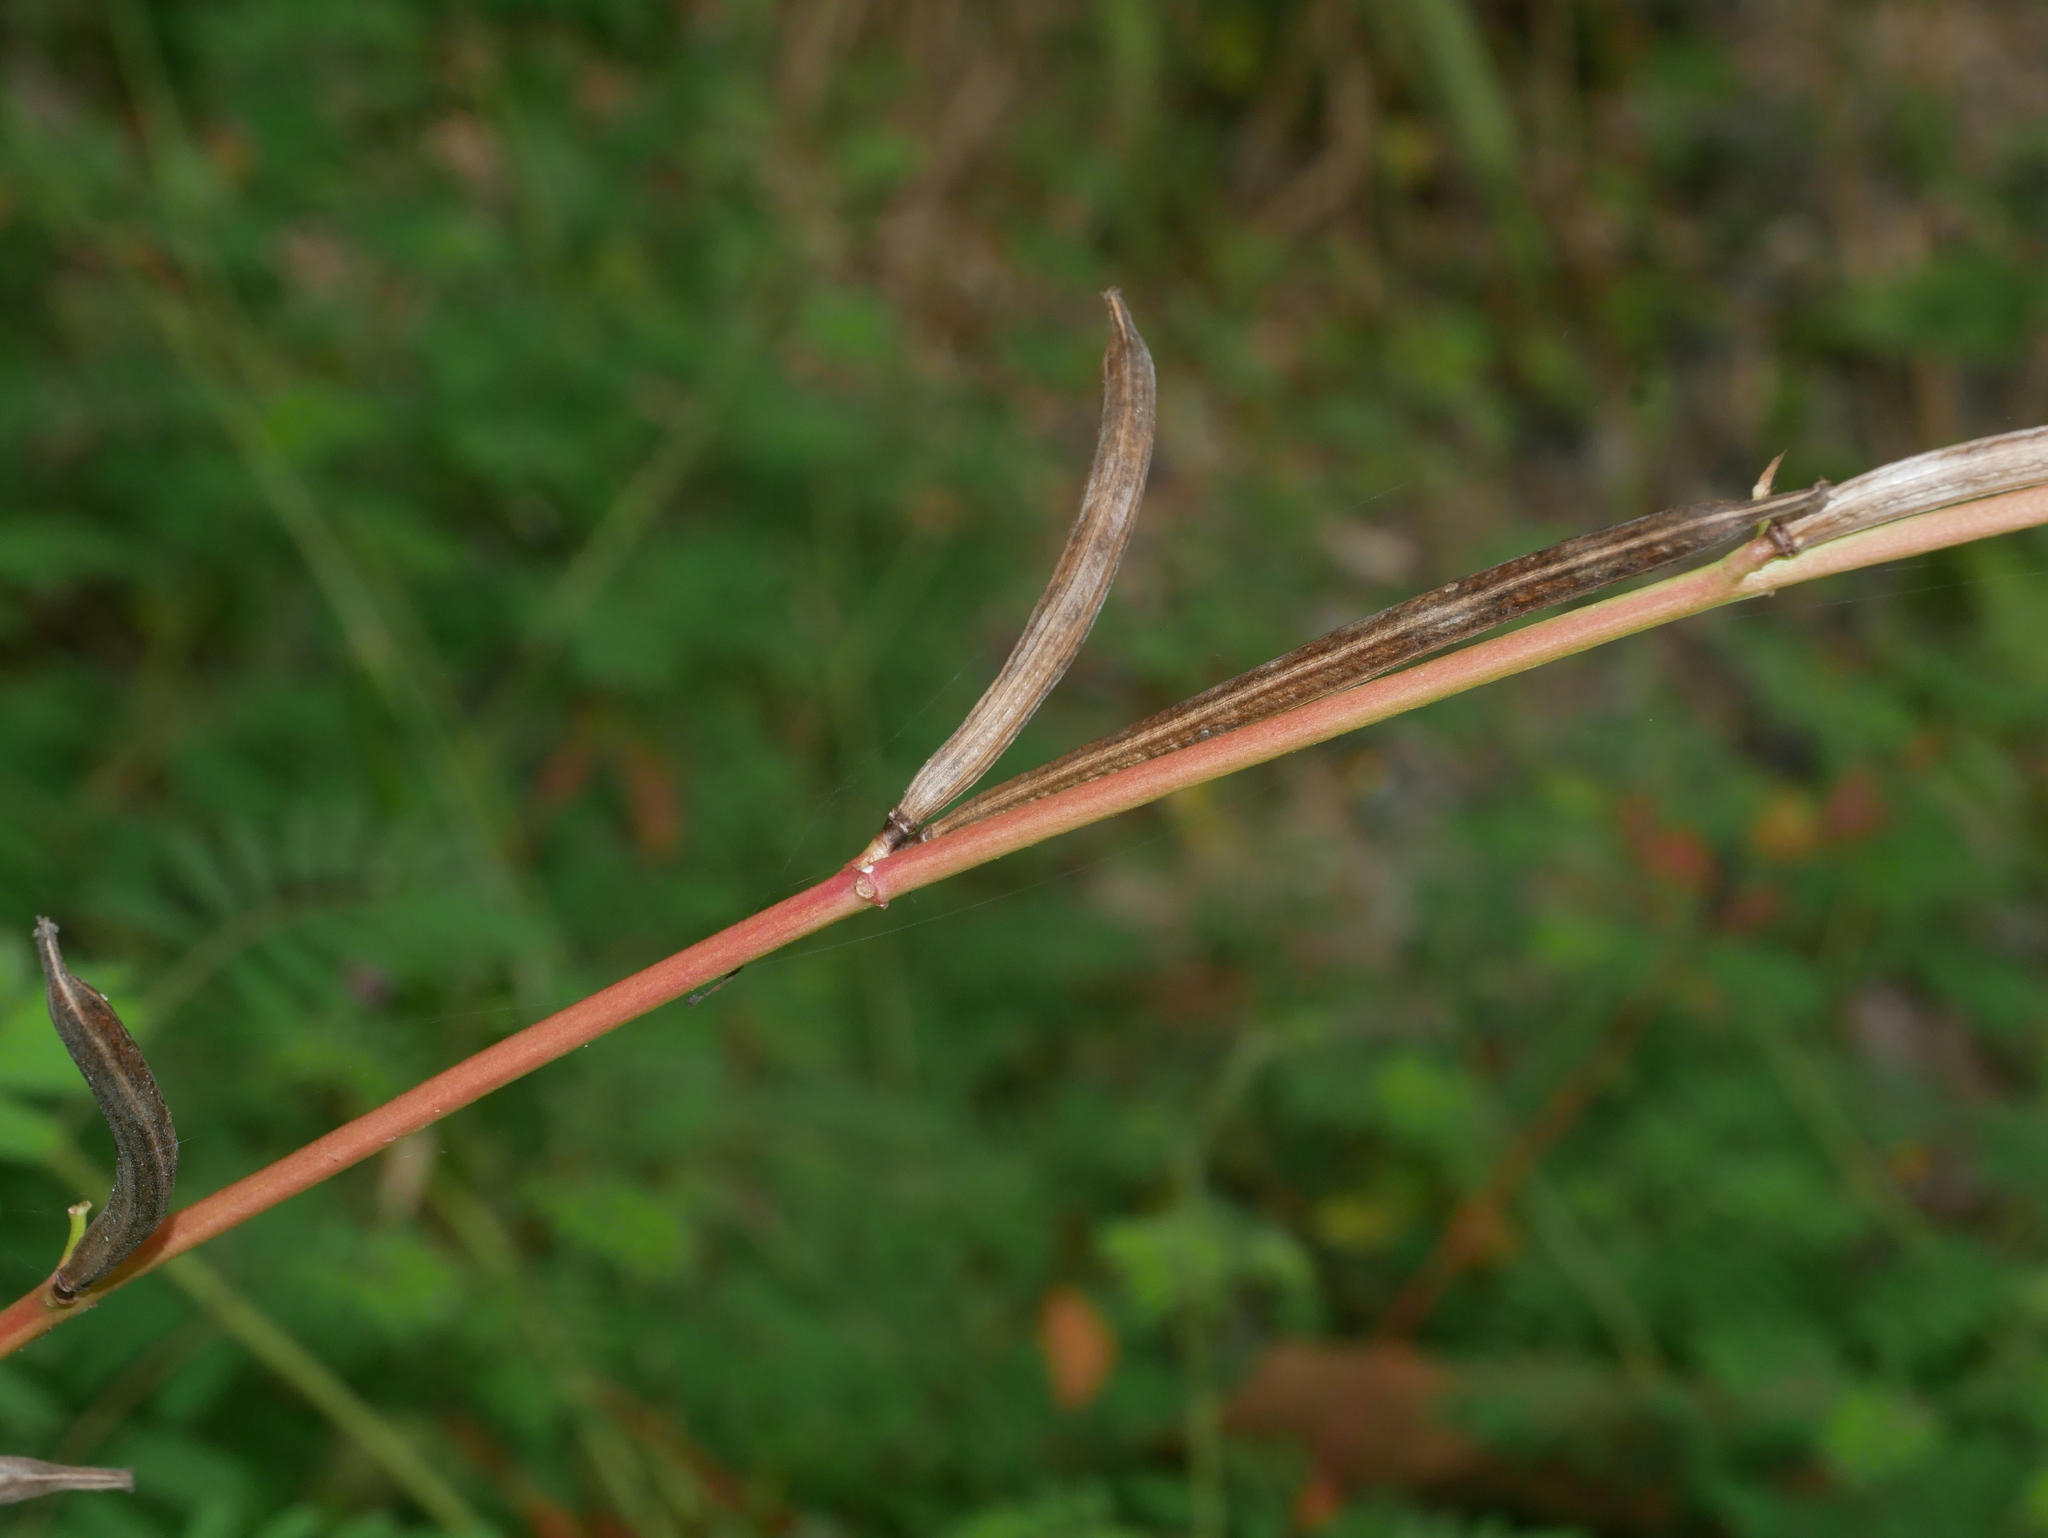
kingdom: Plantae
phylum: Tracheophyta
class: Magnoliopsida
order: Malvales
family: Malvaceae
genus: Corchorus
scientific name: Corchorus olitorius
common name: Tossa jute
